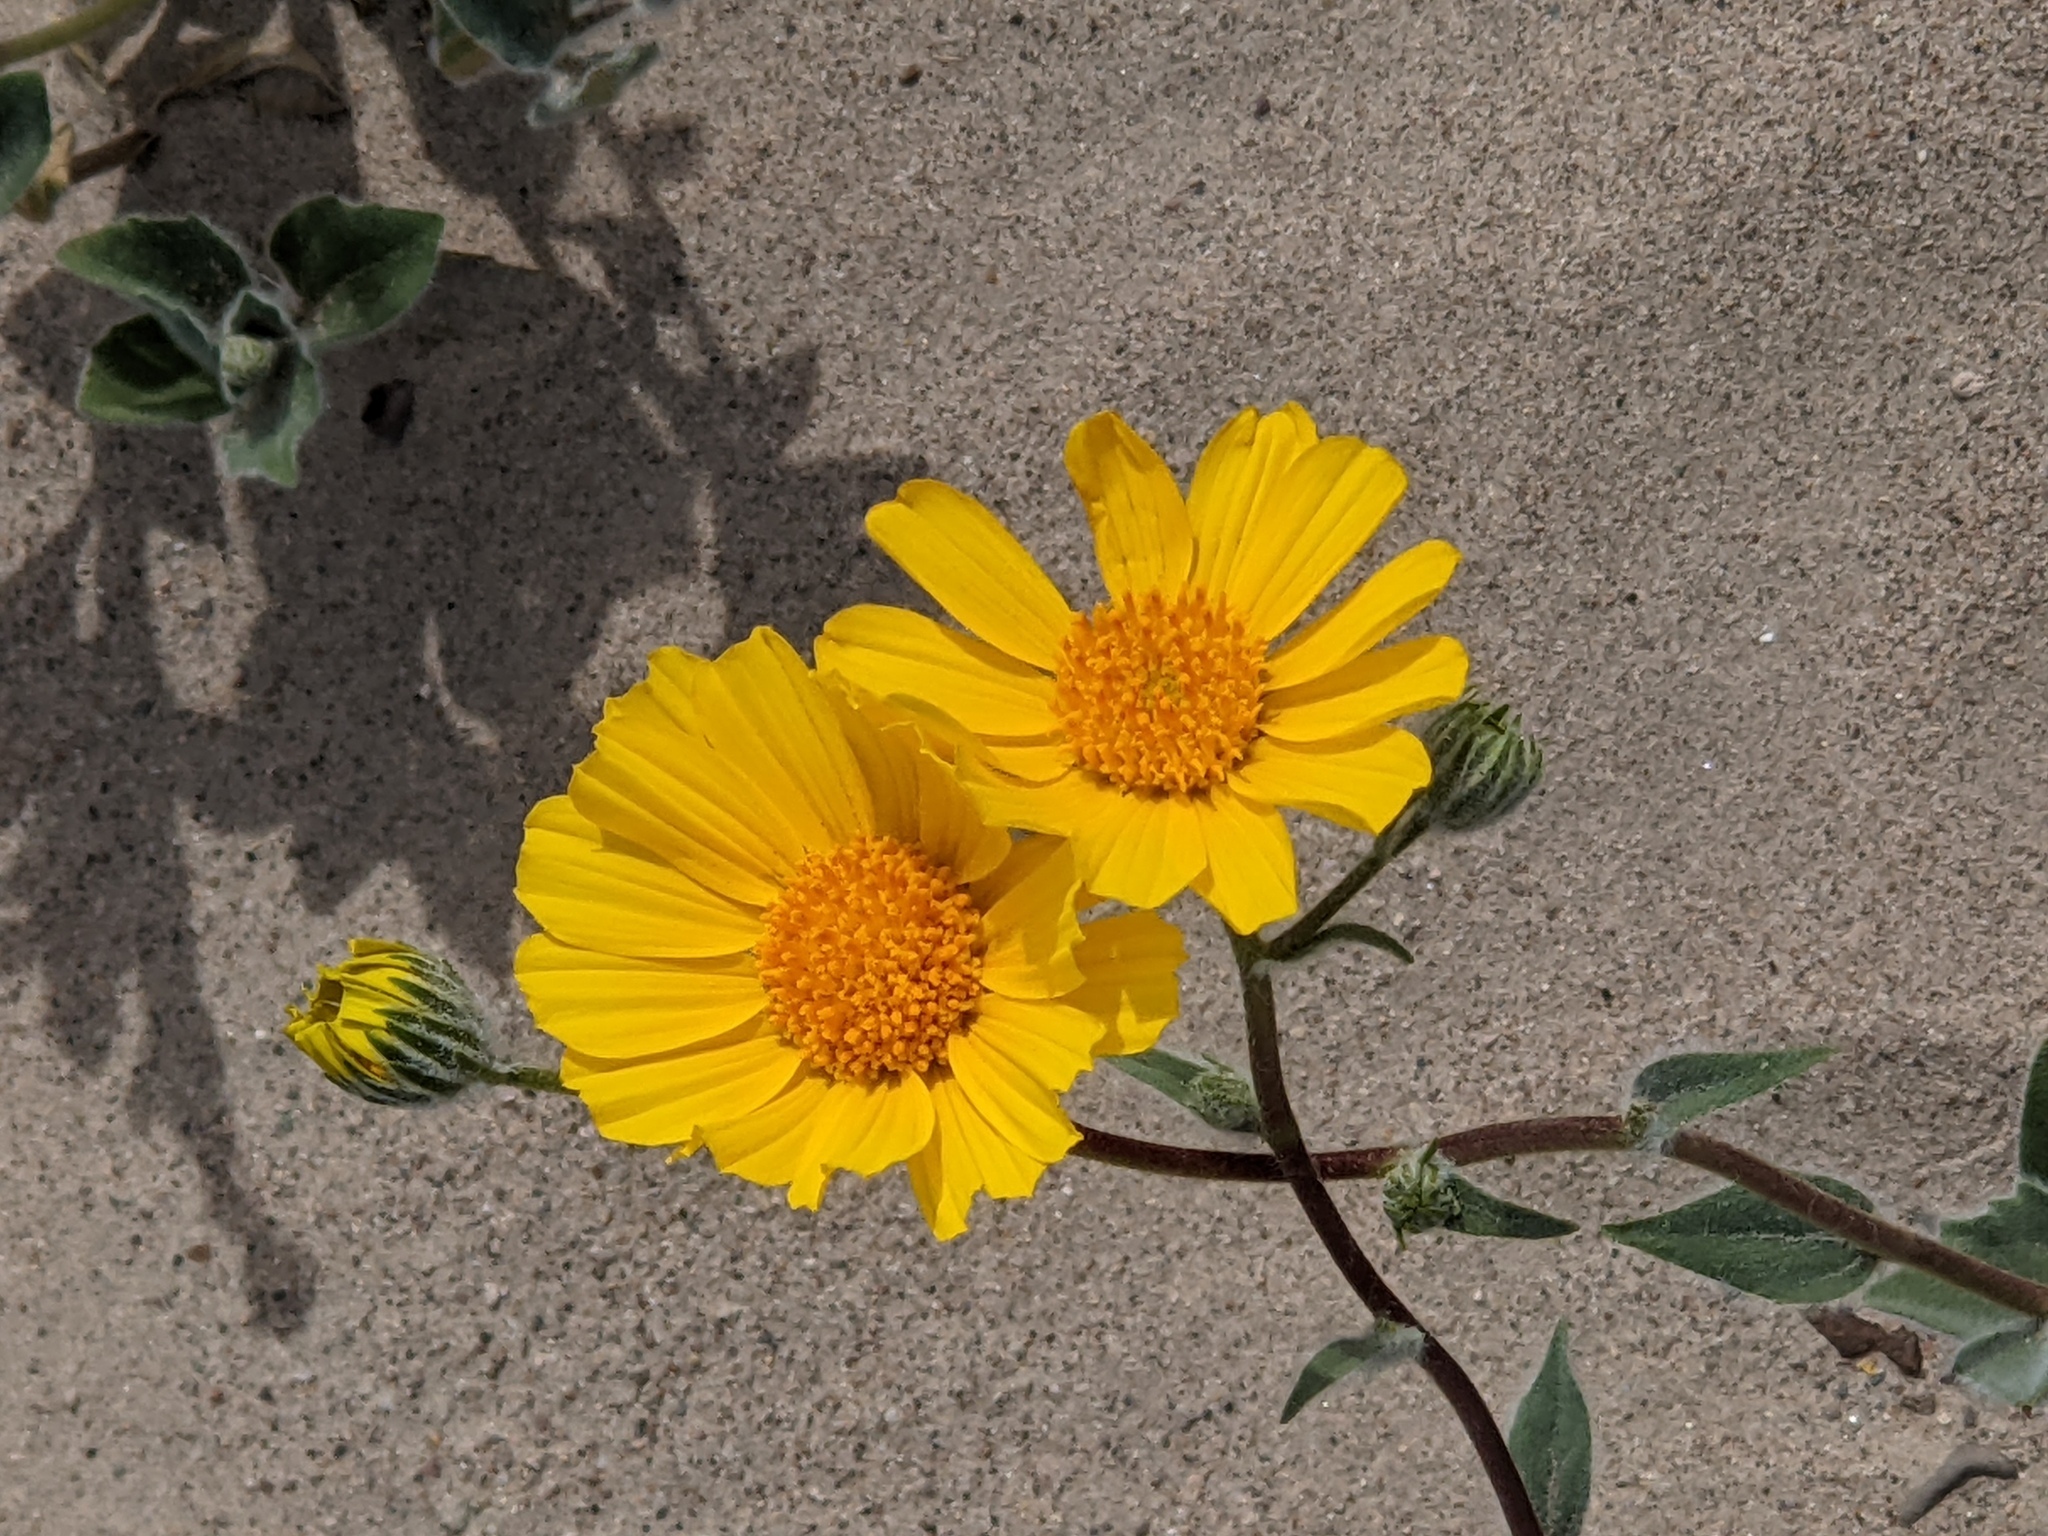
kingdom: Plantae
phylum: Tracheophyta
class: Magnoliopsida
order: Asterales
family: Asteraceae
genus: Geraea
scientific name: Geraea canescens
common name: Desert-gold
